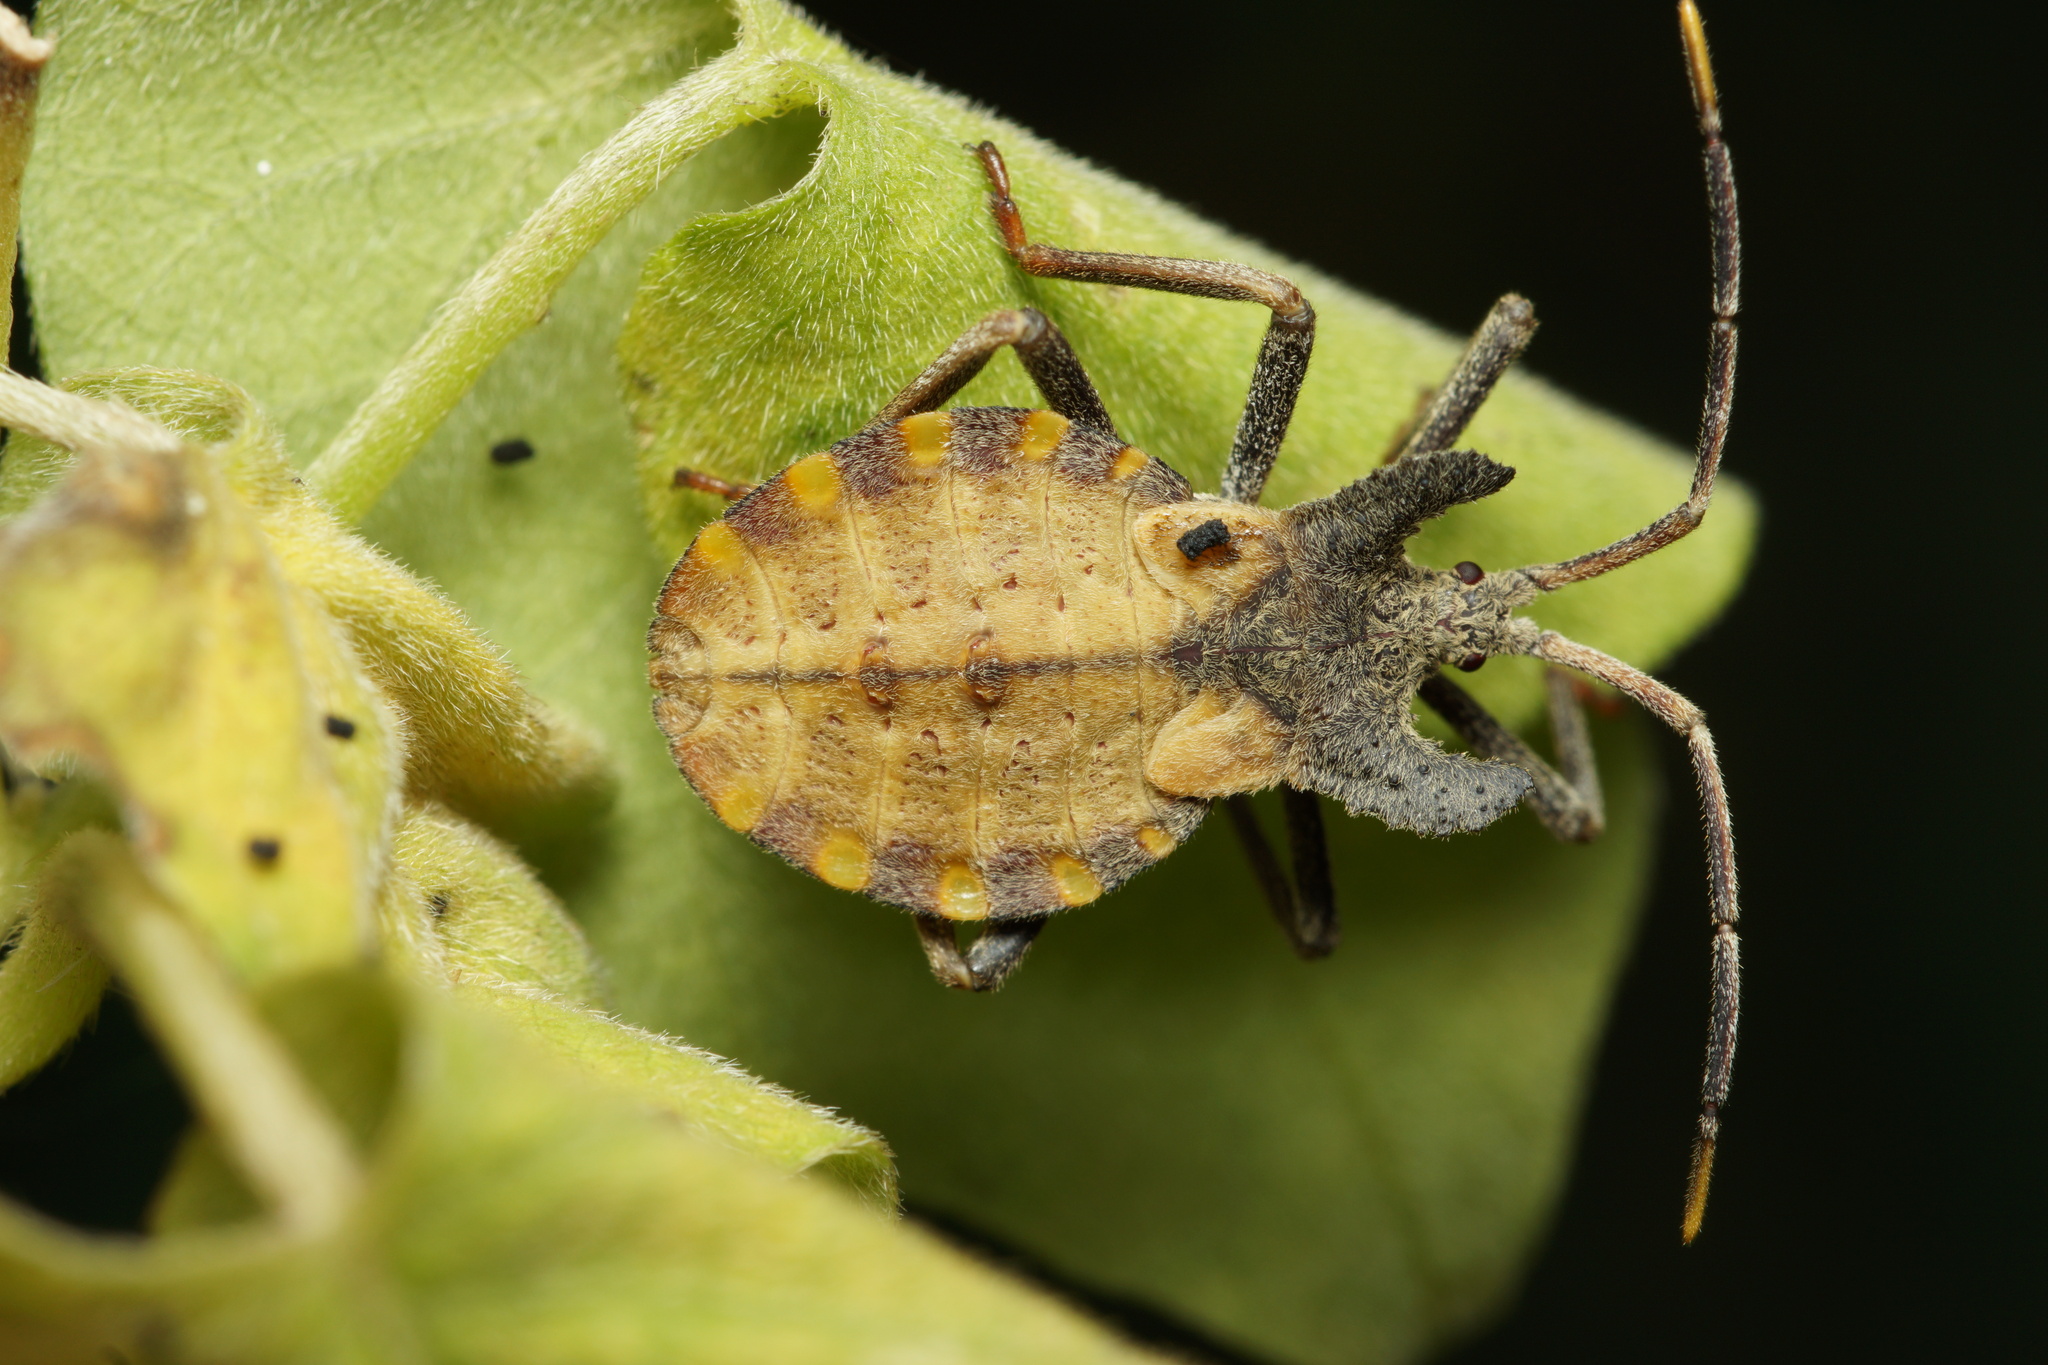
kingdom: Animalia
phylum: Arthropoda
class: Insecta
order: Hemiptera
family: Coreidae
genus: Menenotus
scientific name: Menenotus diminutus
